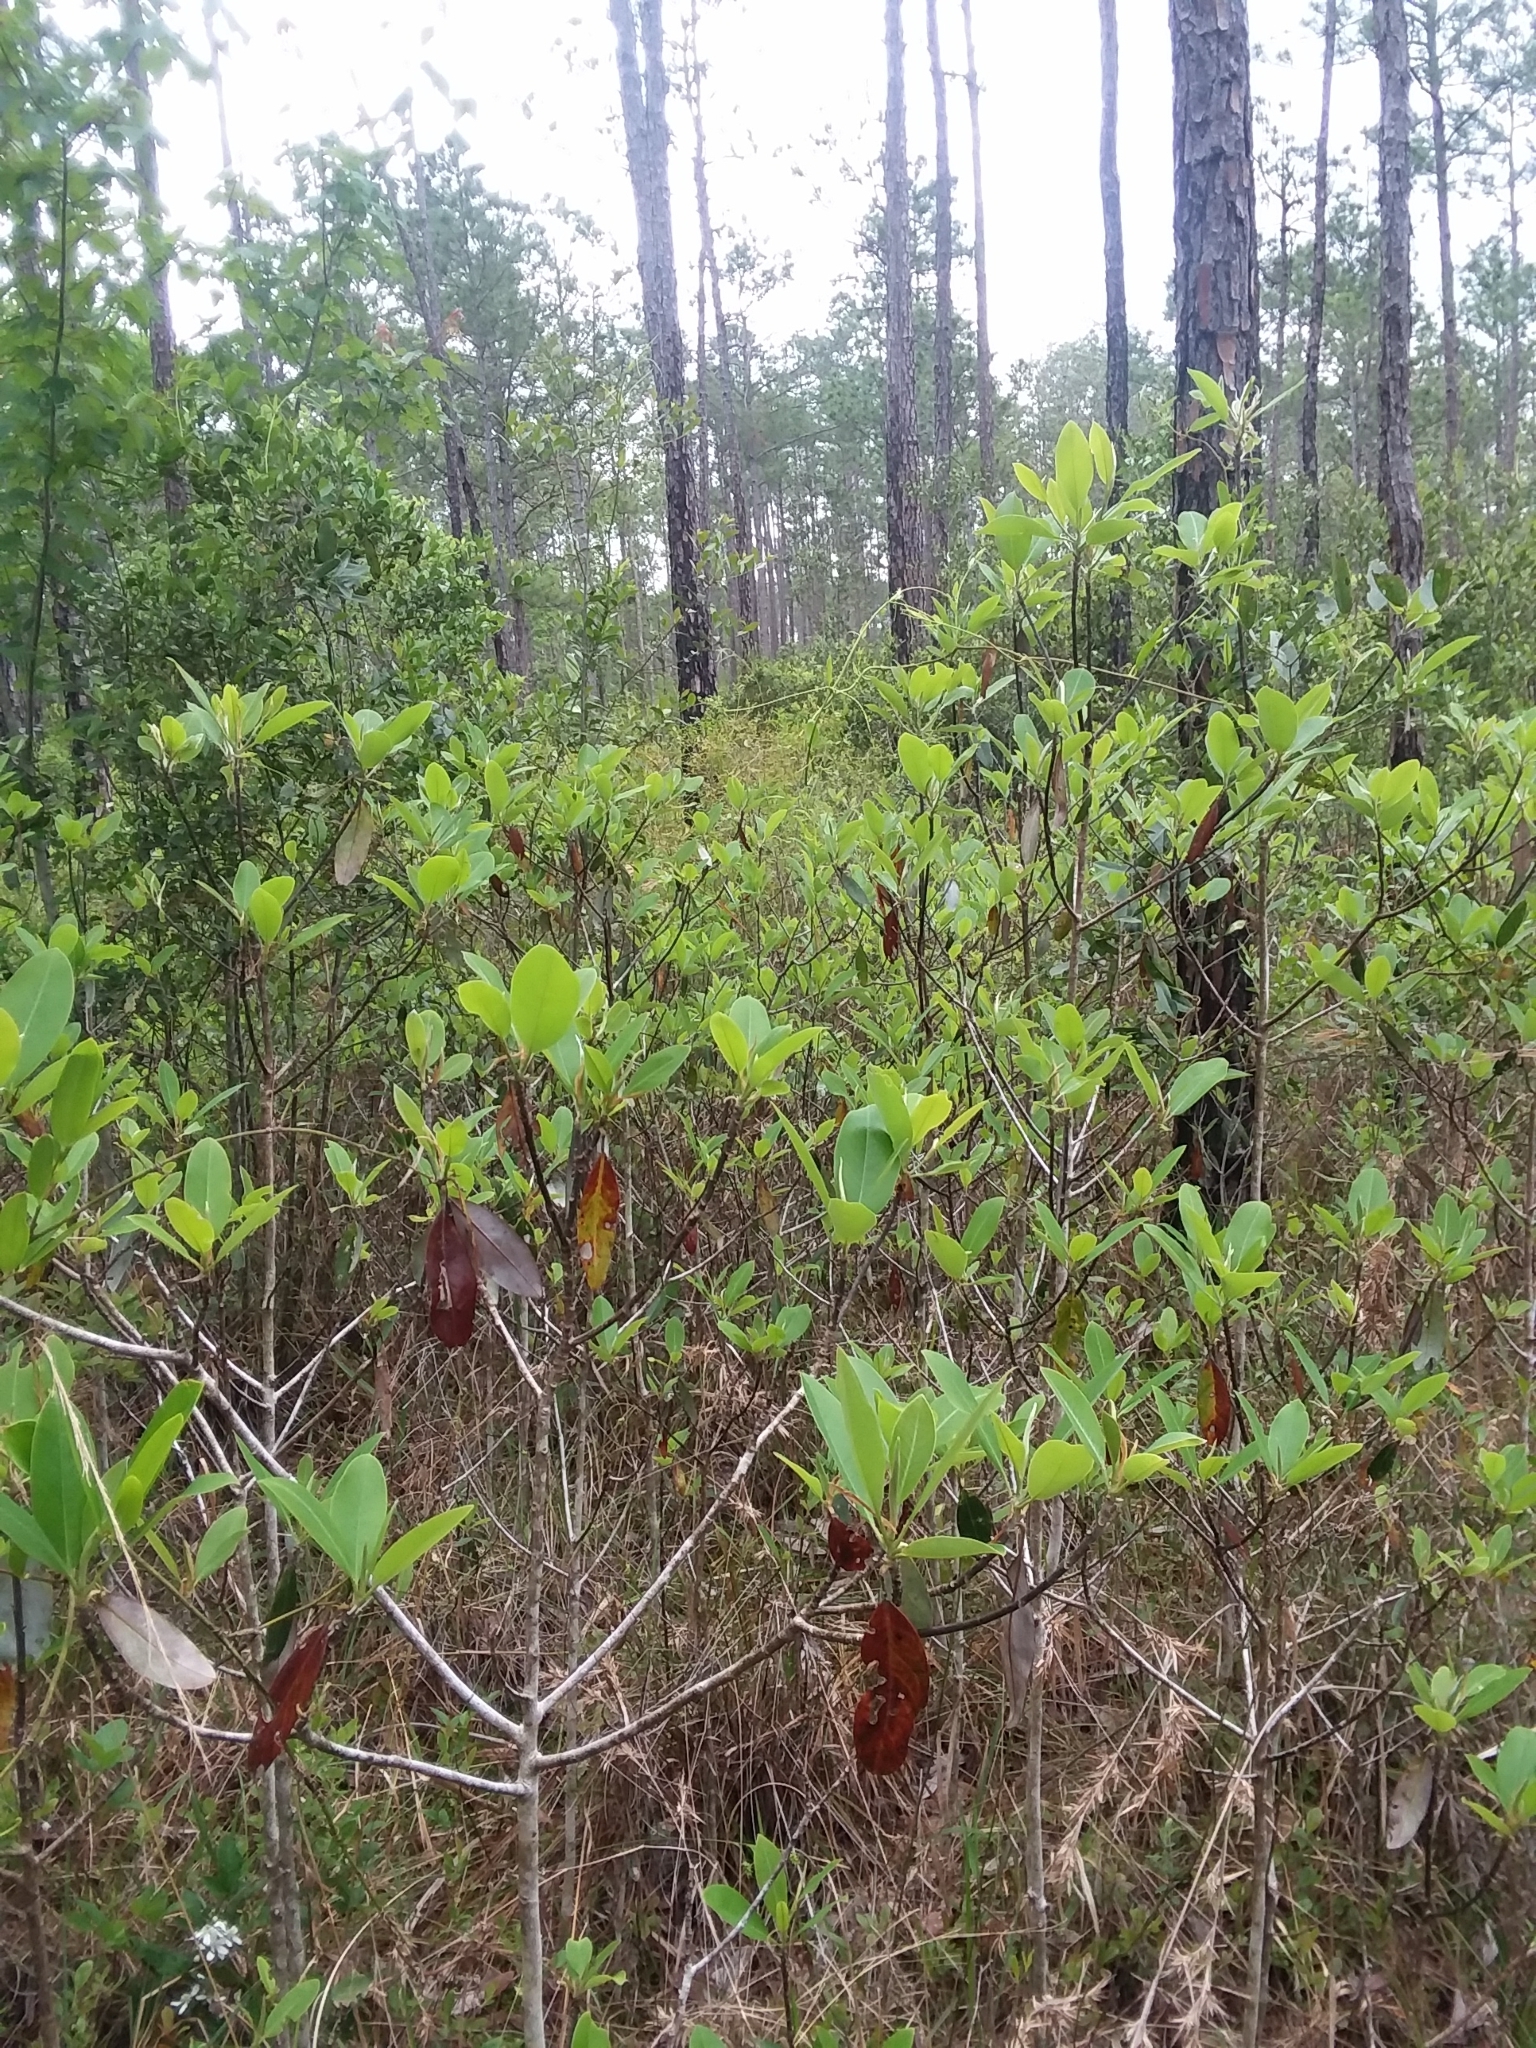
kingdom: Plantae
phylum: Tracheophyta
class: Magnoliopsida
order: Magnoliales
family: Magnoliaceae
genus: Magnolia
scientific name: Magnolia virginiana
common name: Swamp bay
